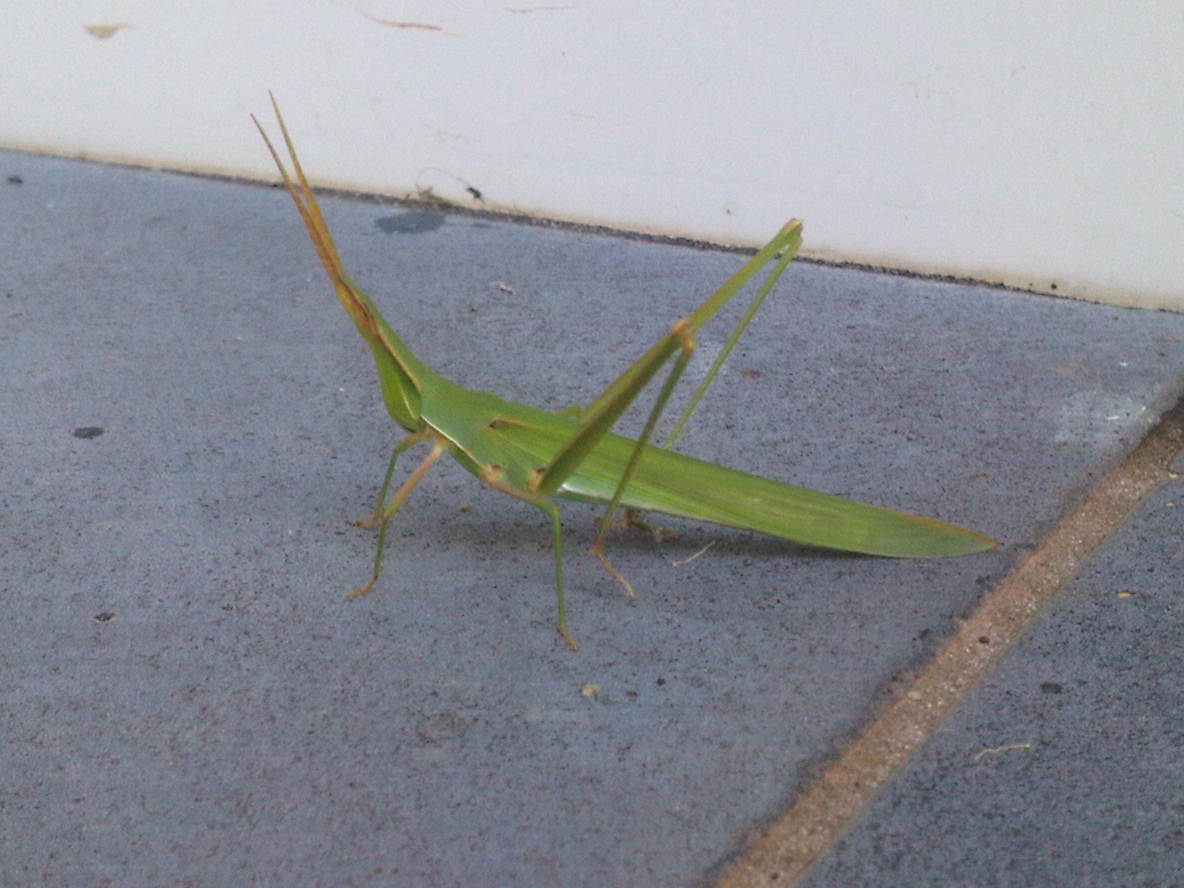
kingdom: Animalia
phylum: Arthropoda
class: Insecta
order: Orthoptera
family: Acrididae
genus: Acrida
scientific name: Acrida conica
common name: Giant green slantface
